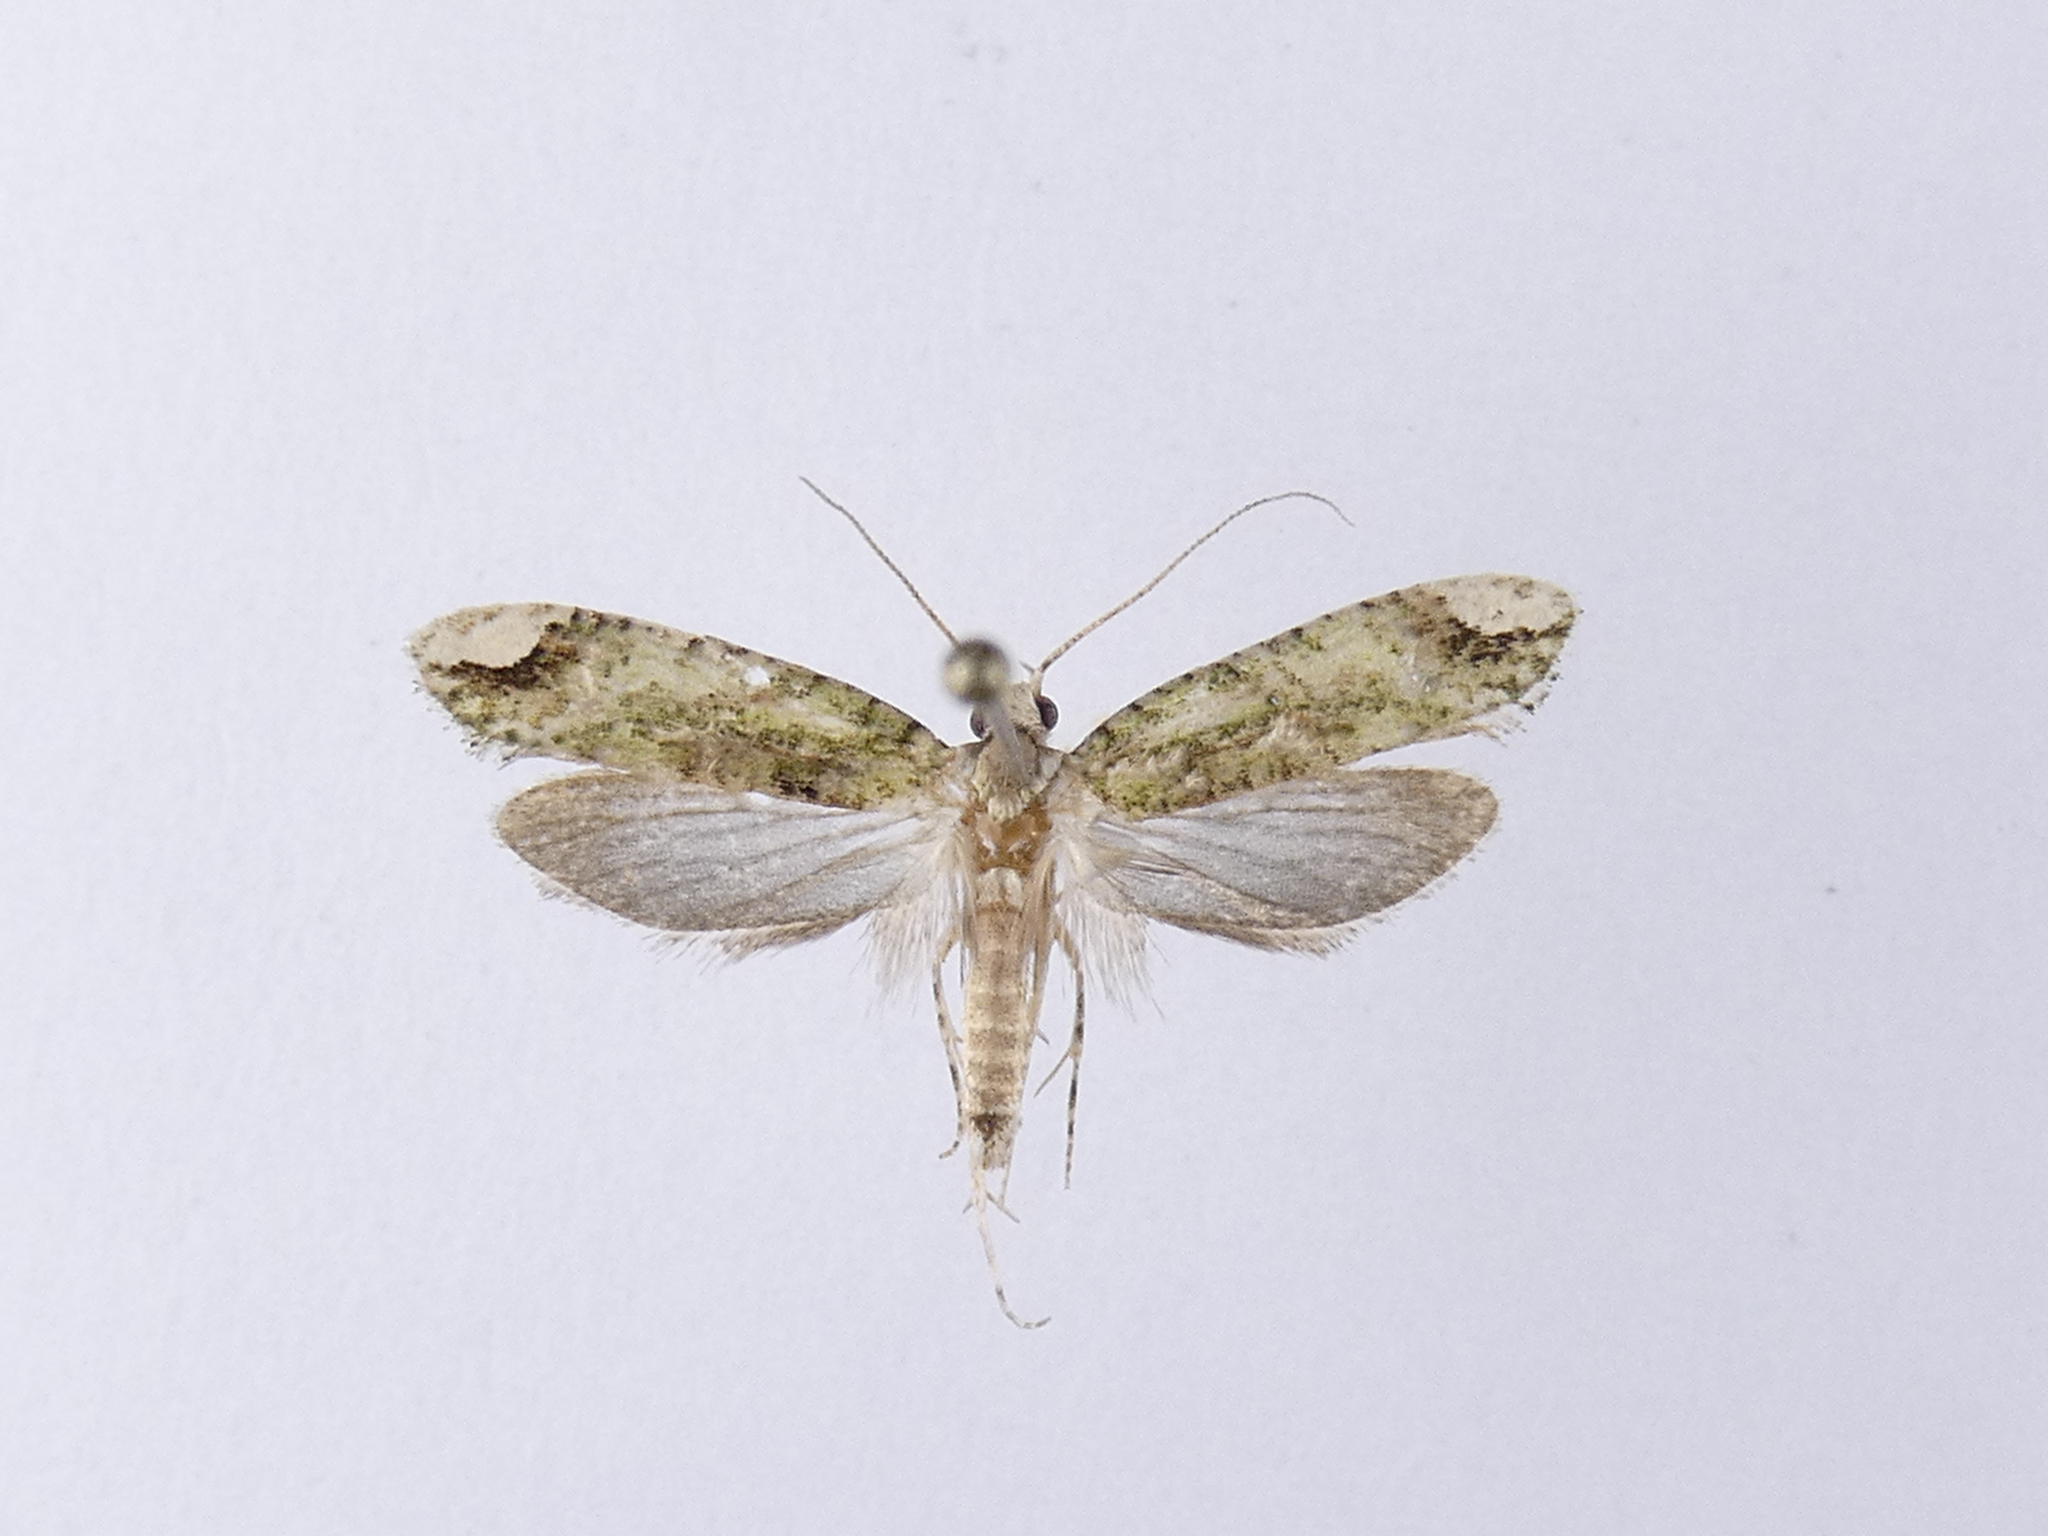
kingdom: Animalia
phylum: Arthropoda
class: Insecta
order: Lepidoptera
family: Tineidae
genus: Lysiphragma
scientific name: Lysiphragma mixochlora
